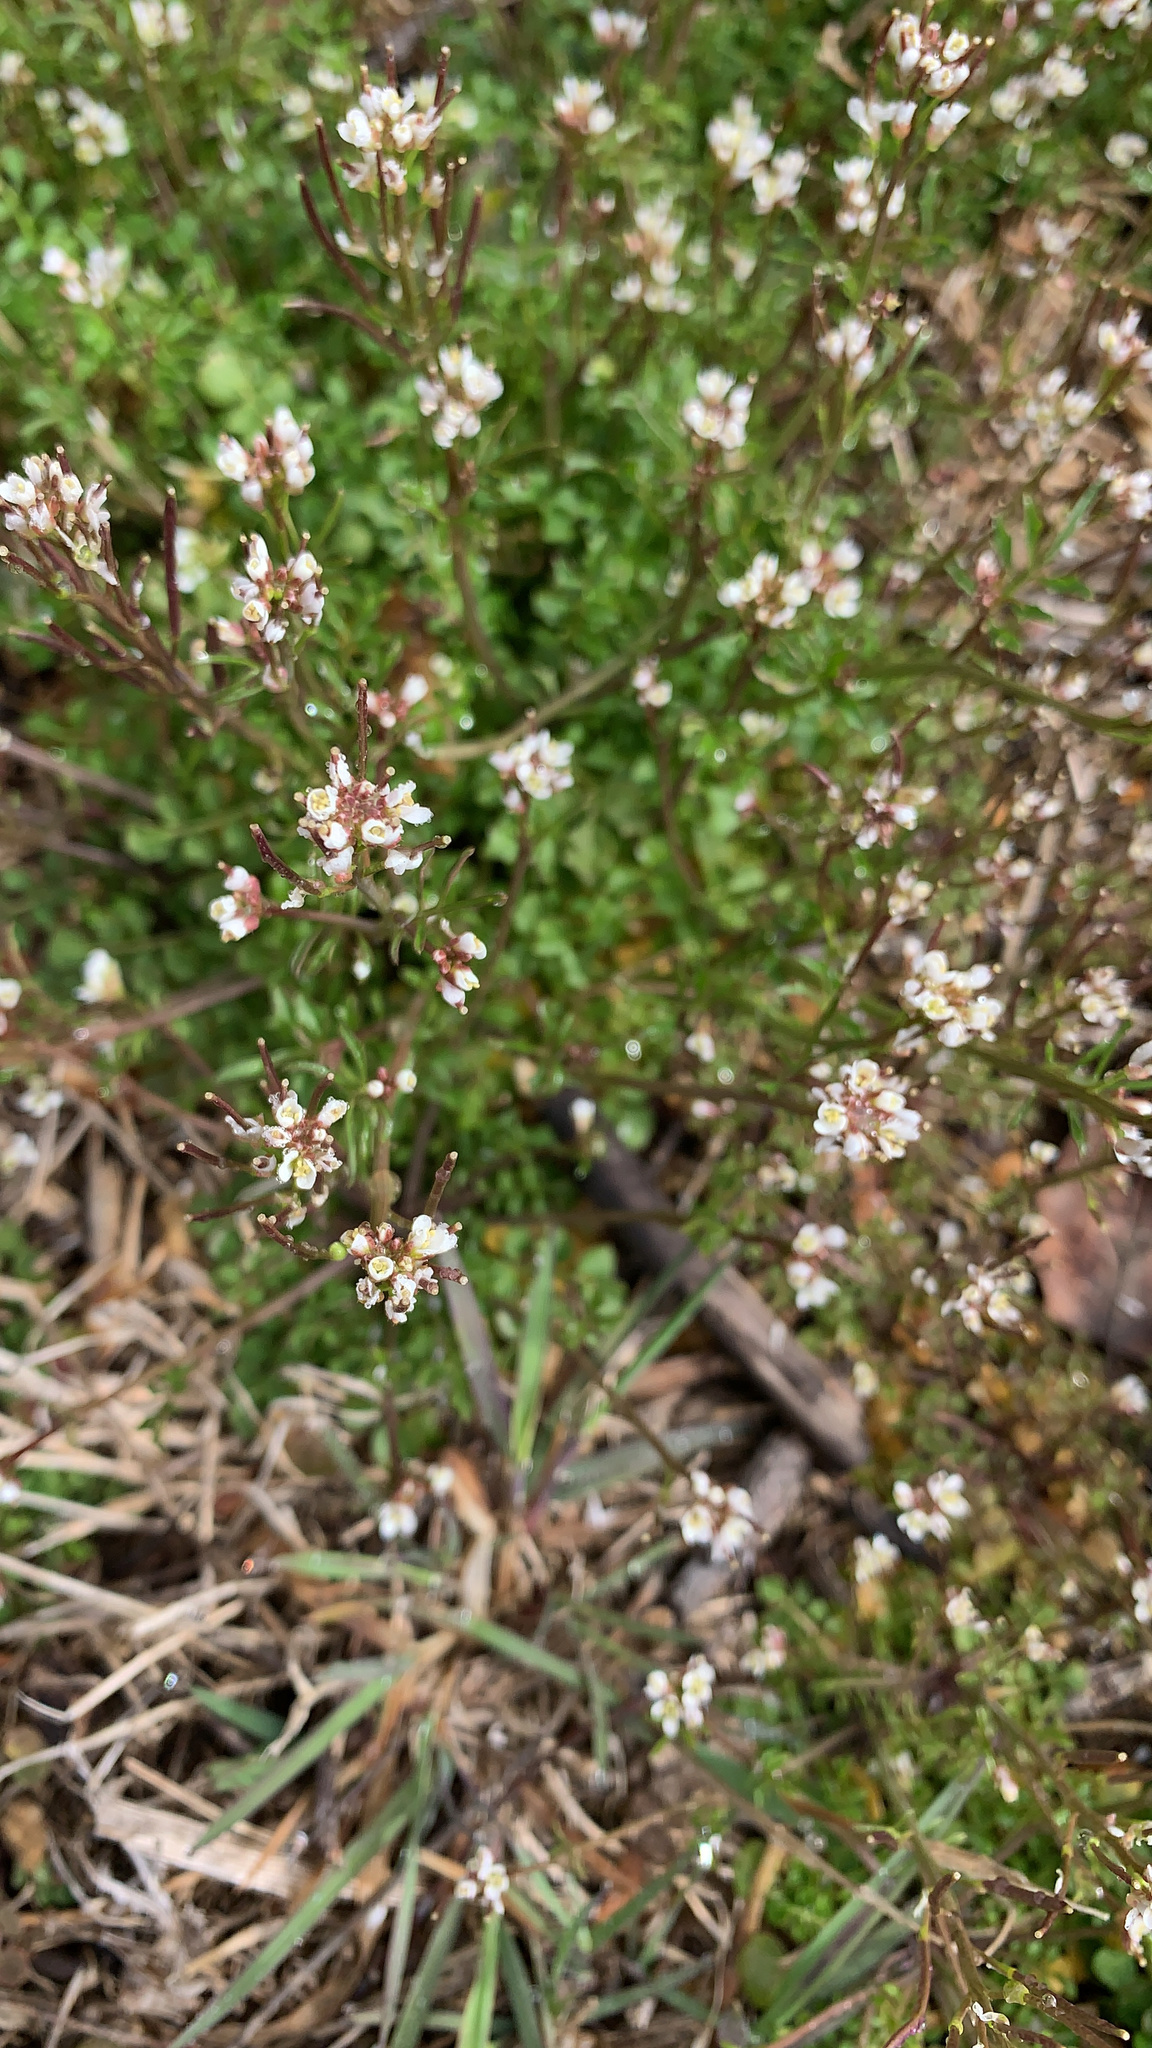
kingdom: Plantae
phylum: Tracheophyta
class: Magnoliopsida
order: Brassicales
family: Brassicaceae
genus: Cardamine
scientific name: Cardamine hirsuta
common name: Hairy bittercress
